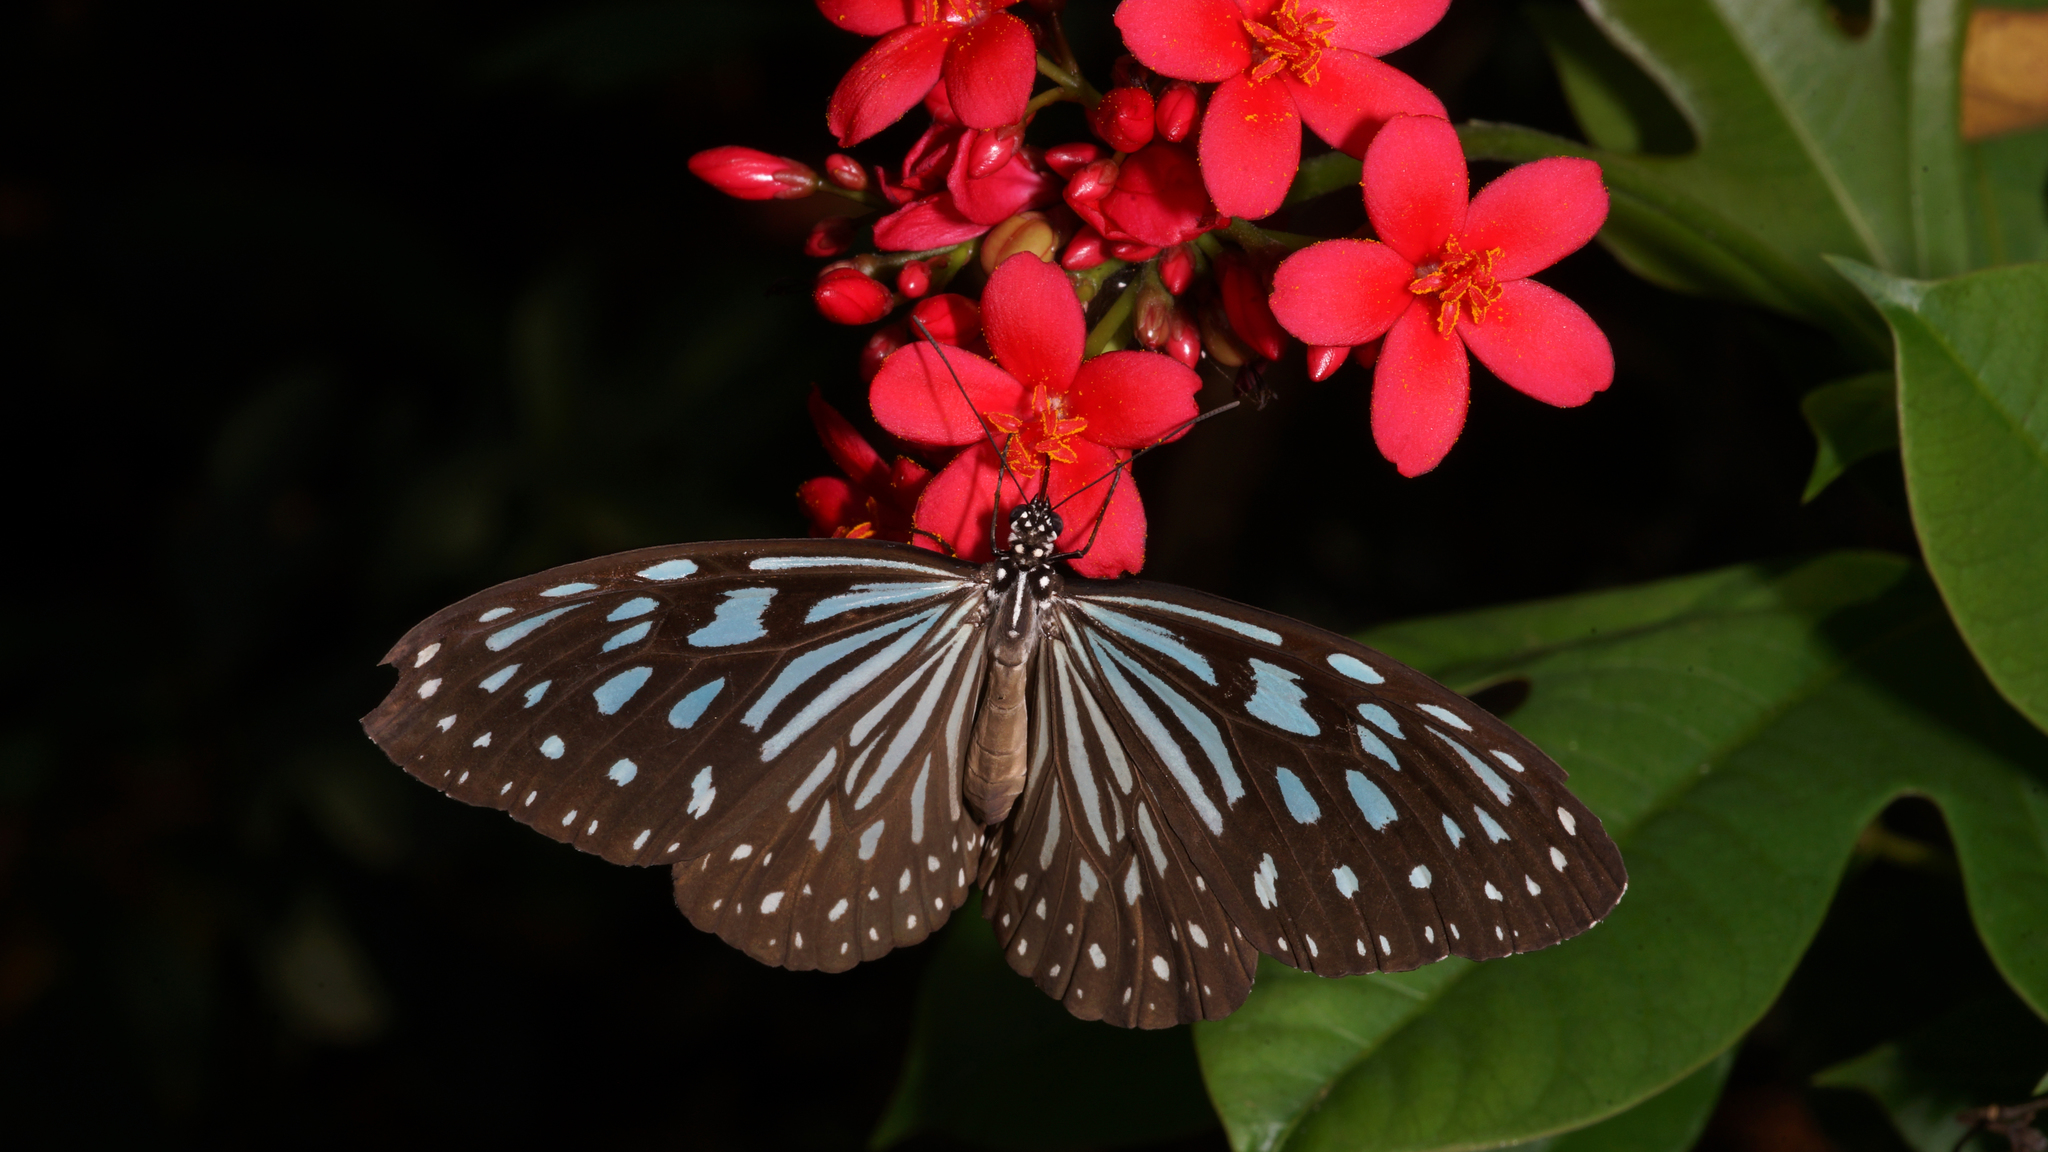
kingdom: Animalia
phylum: Arthropoda
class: Insecta
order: Lepidoptera
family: Nymphalidae
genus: Ideopsis
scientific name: Ideopsis similis
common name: Ceylon blue glassy tiger
